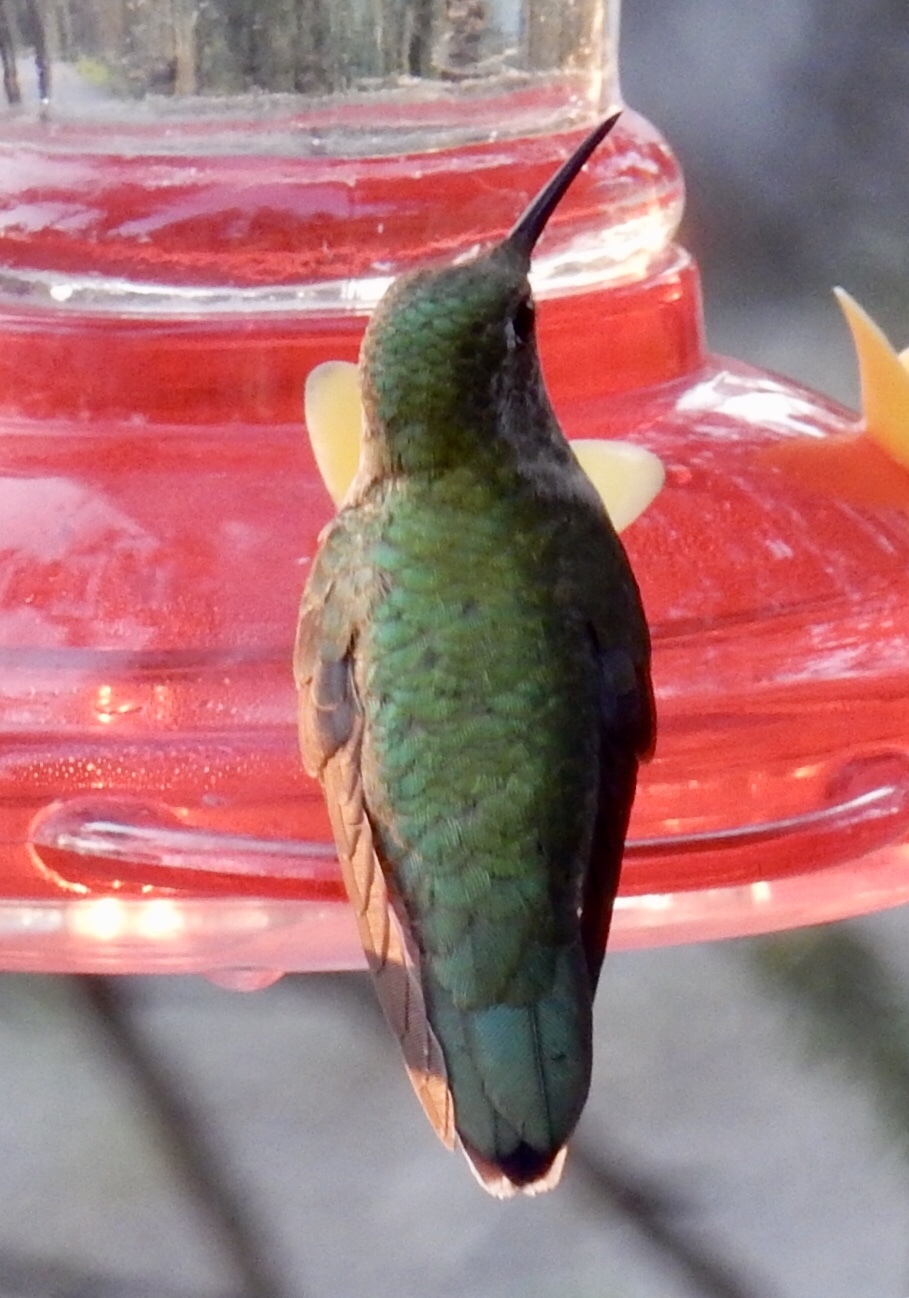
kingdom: Animalia
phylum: Chordata
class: Aves
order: Apodiformes
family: Trochilidae
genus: Selasphorus
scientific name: Selasphorus platycercus
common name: Broad-tailed hummingbird
